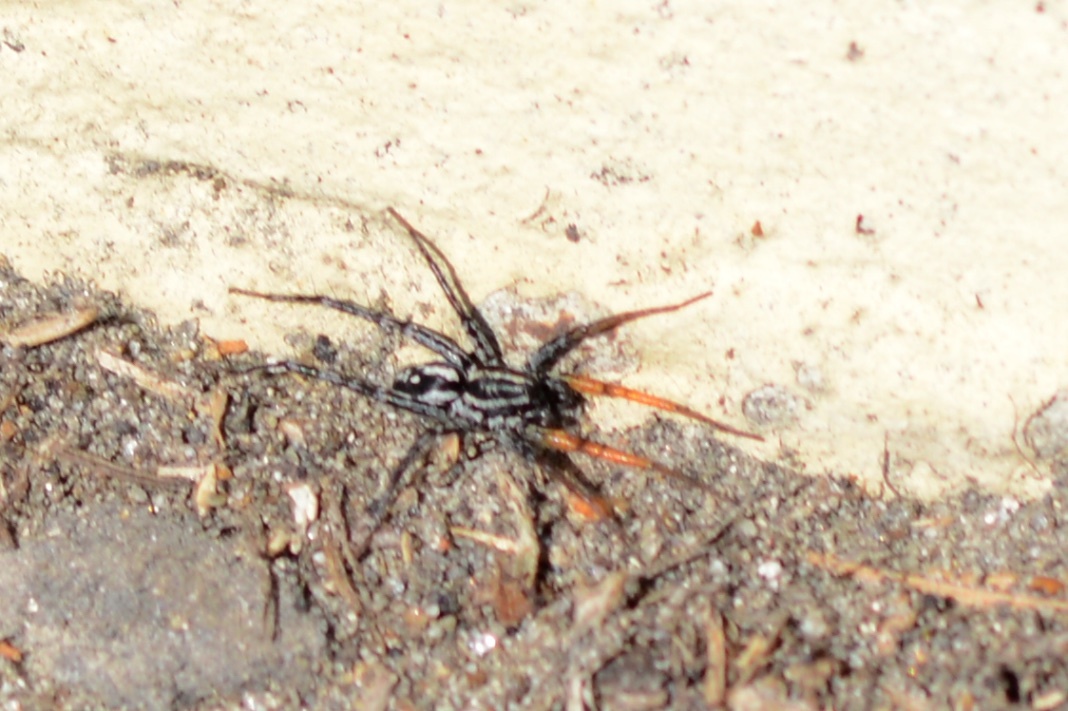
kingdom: Animalia
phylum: Arthropoda
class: Arachnida
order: Araneae
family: Corinnidae
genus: Nyssus
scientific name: Nyssus coloripes
